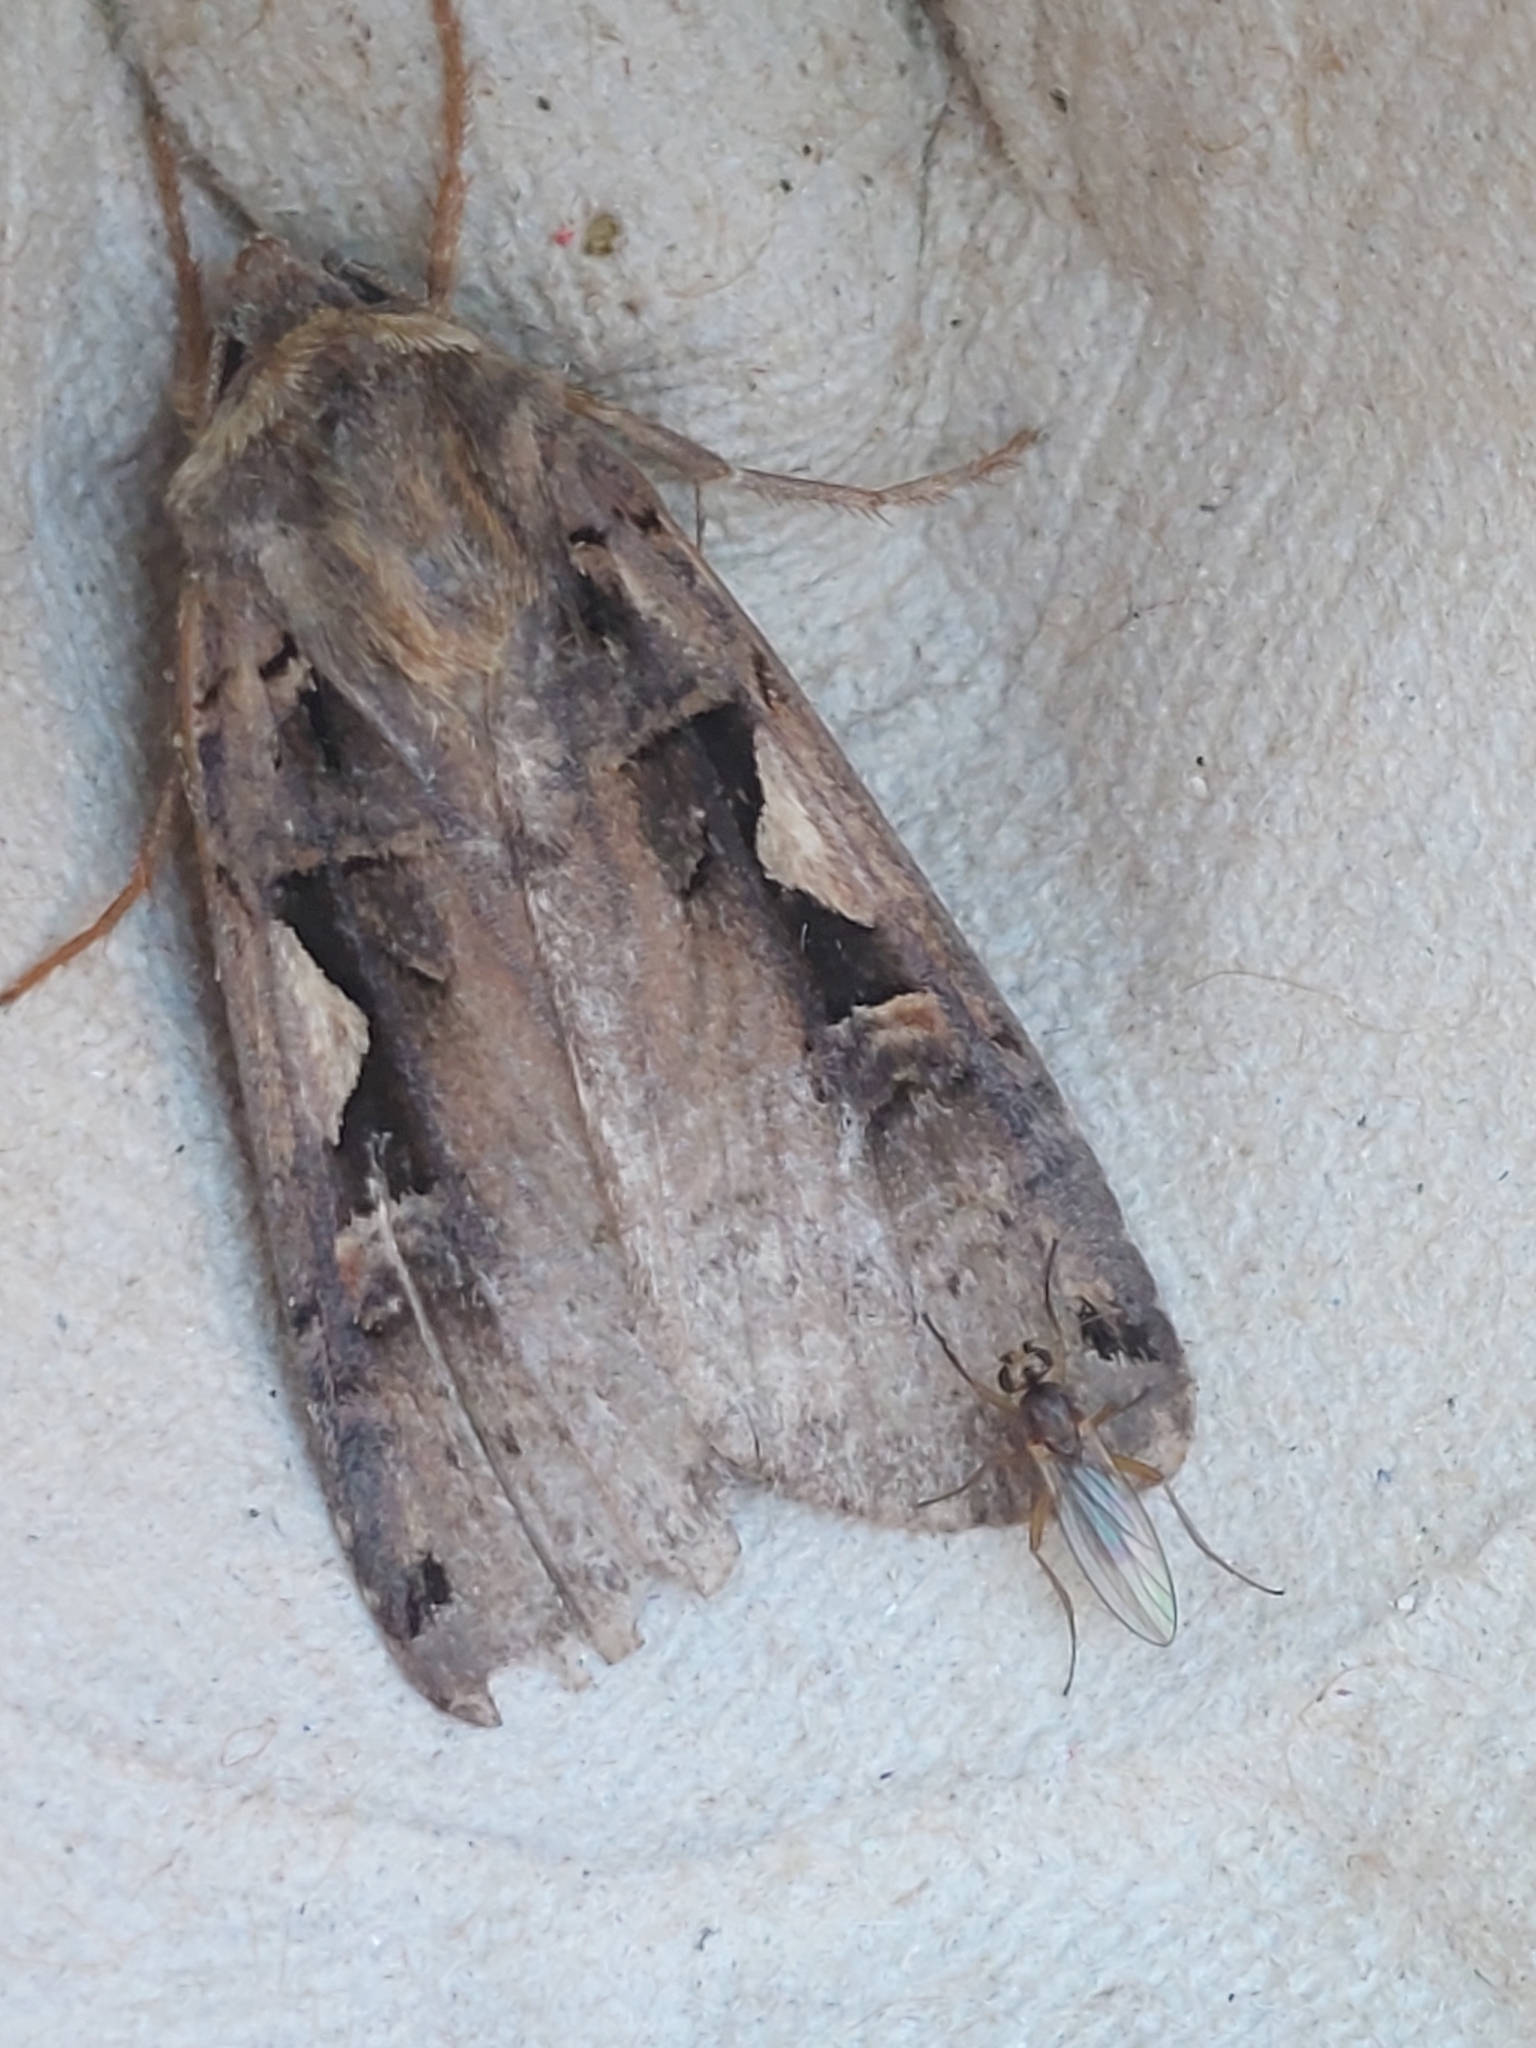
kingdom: Animalia
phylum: Arthropoda
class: Insecta
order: Lepidoptera
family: Noctuidae
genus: Xestia
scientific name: Xestia c-nigrum
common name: Setaceous hebrew character
